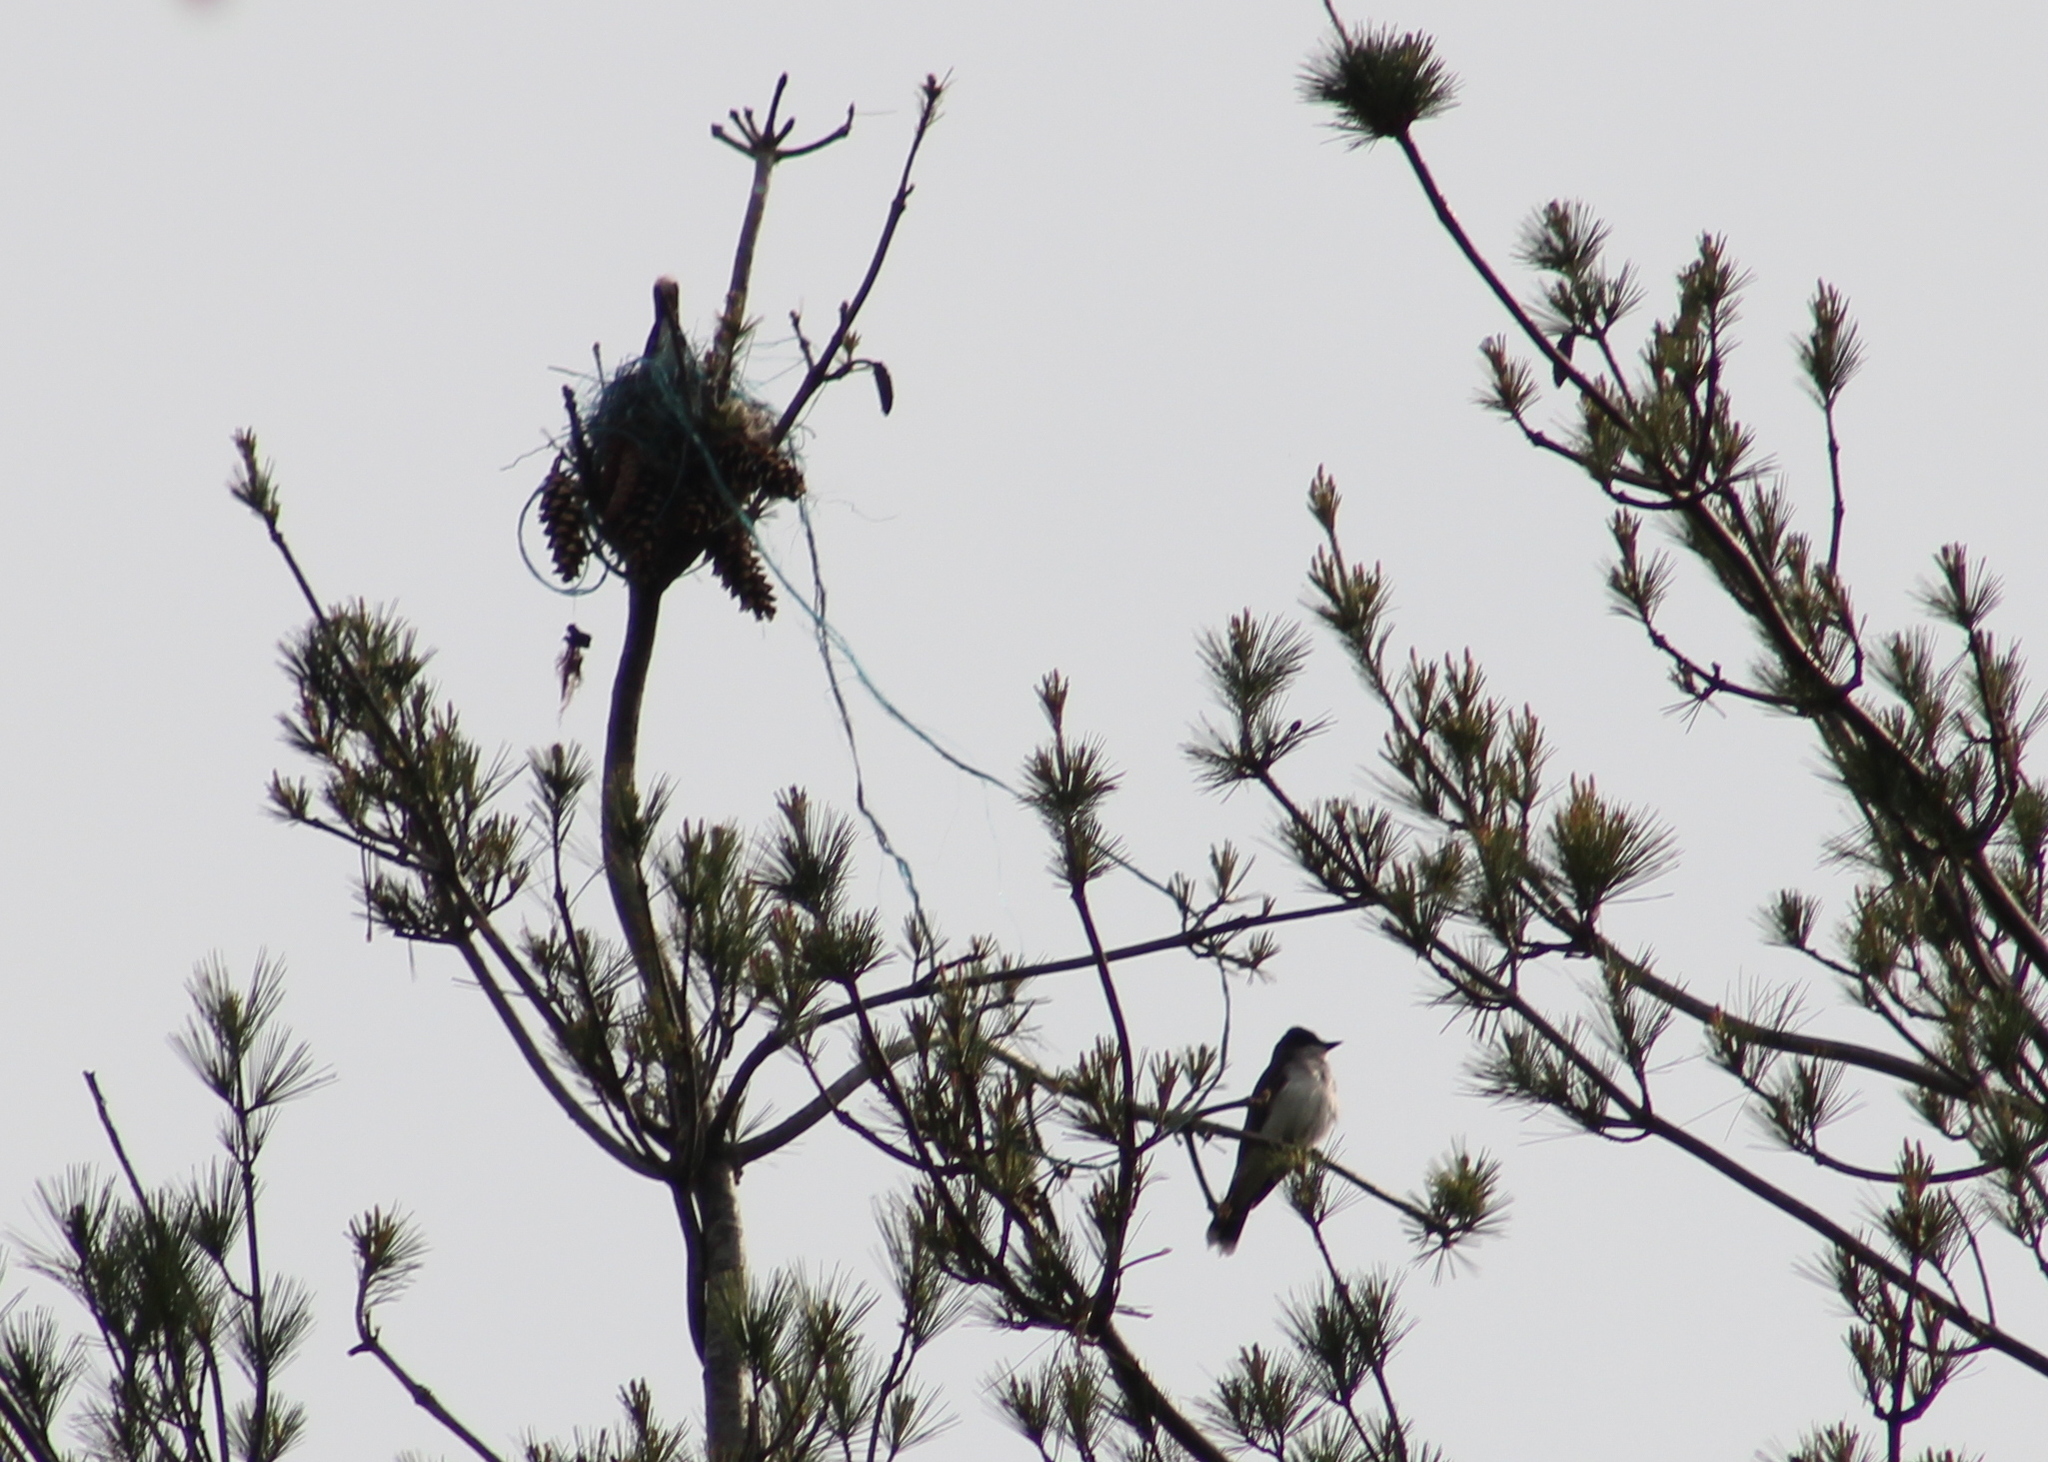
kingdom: Animalia
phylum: Chordata
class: Aves
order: Passeriformes
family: Tyrannidae
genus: Tyrannus
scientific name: Tyrannus tyrannus
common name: Eastern kingbird
